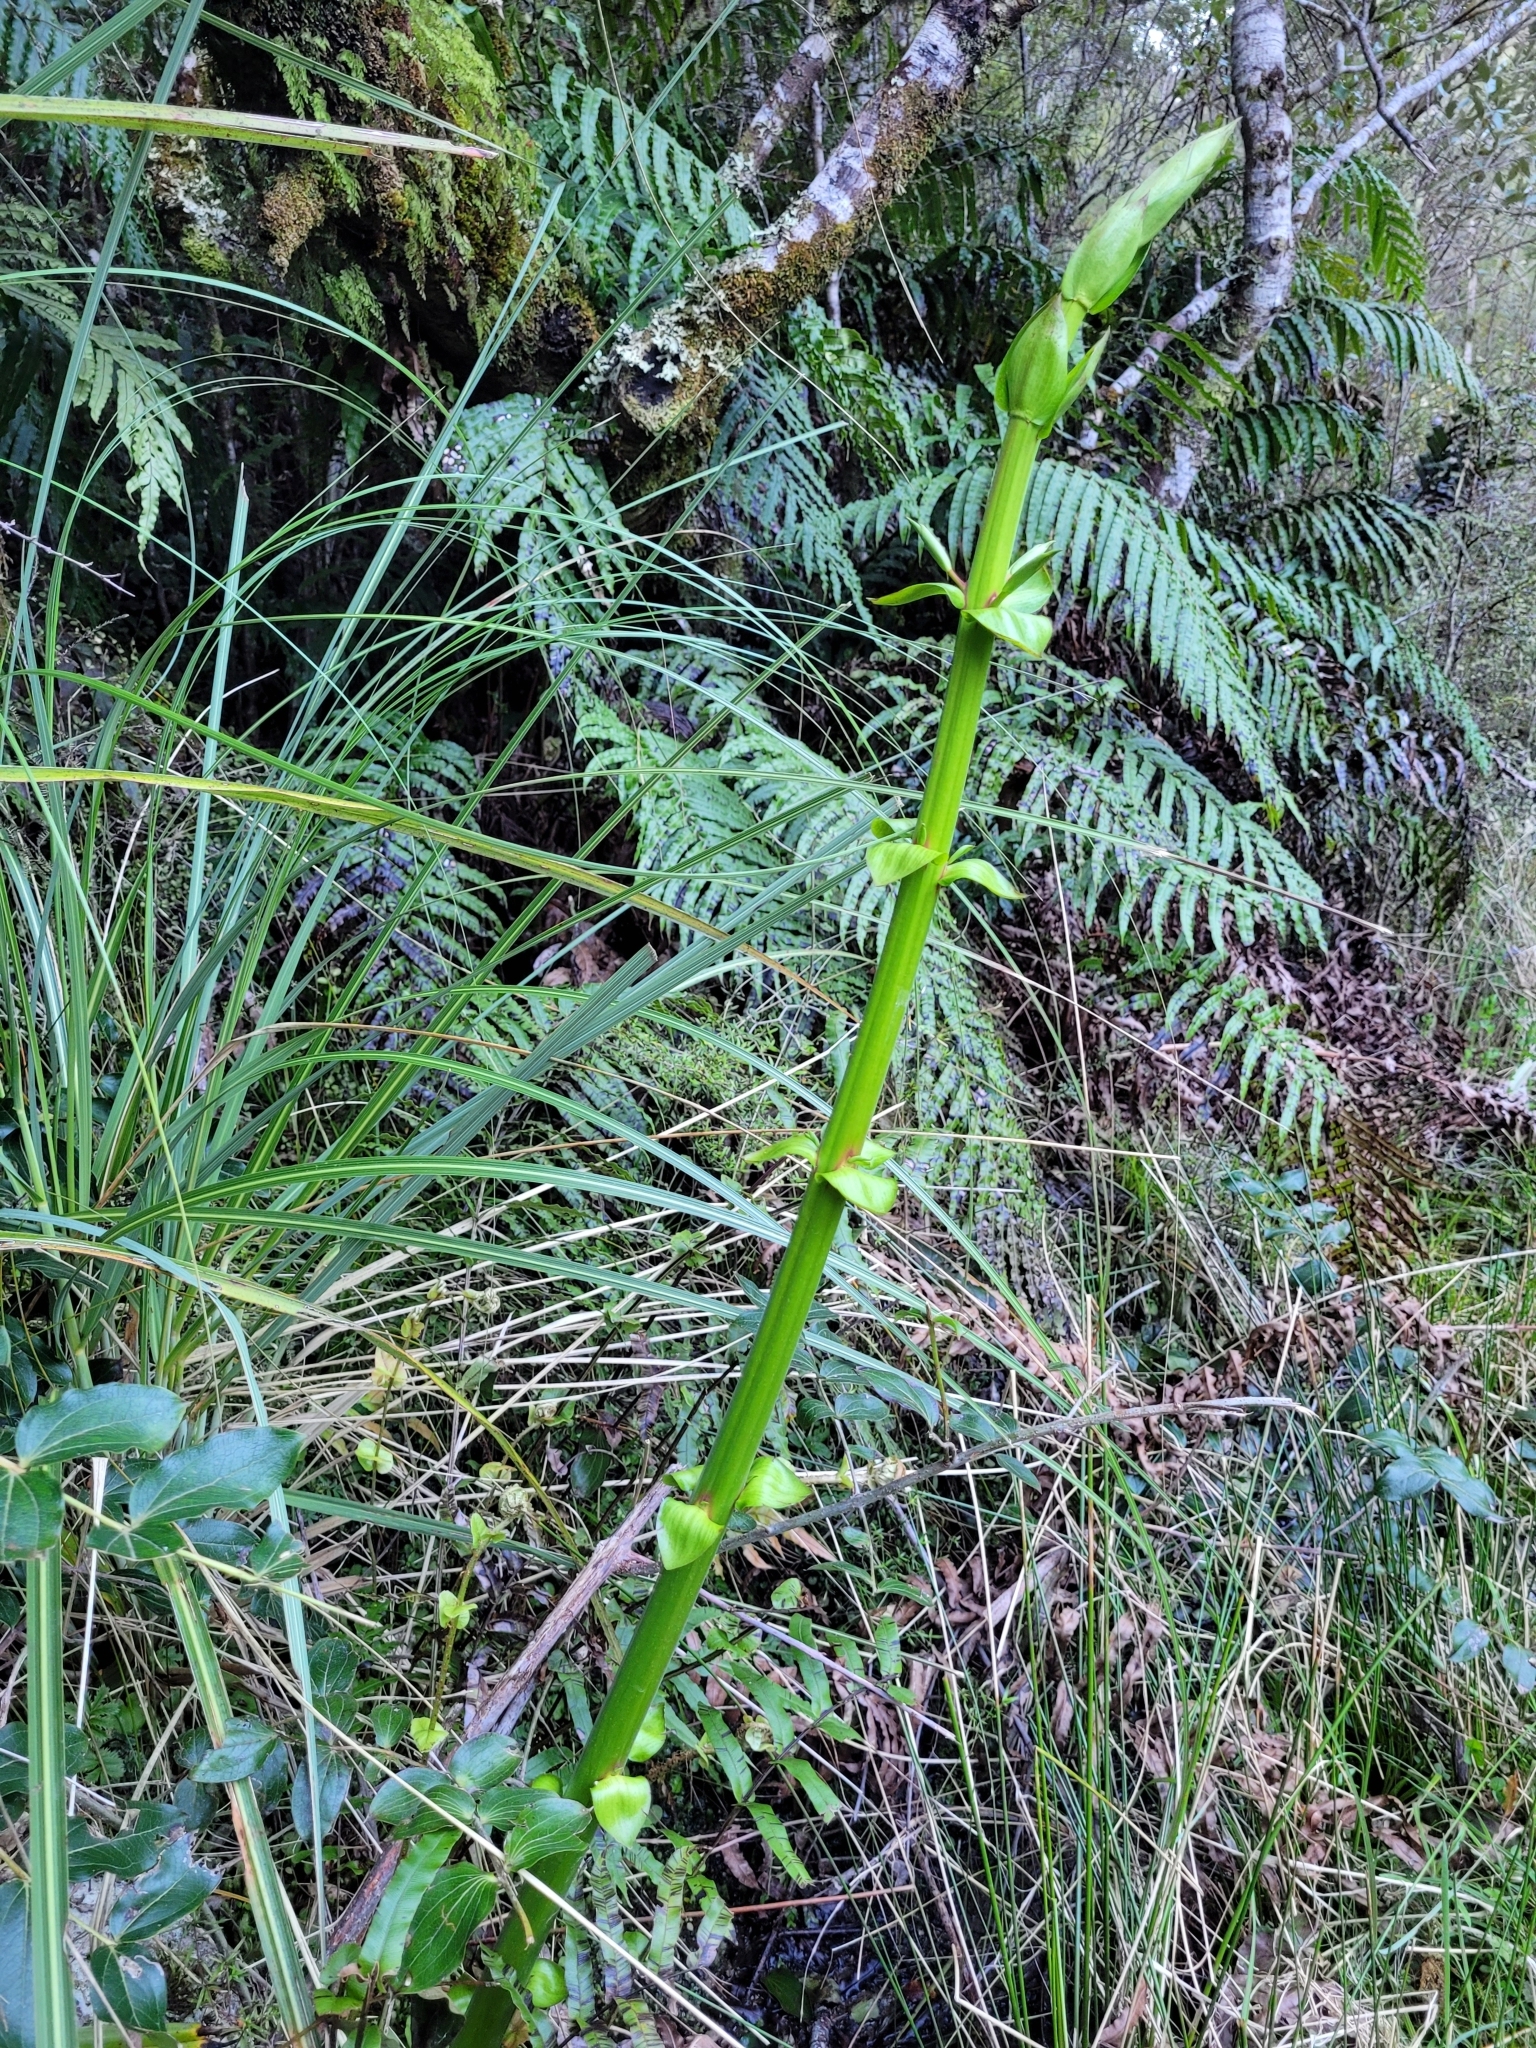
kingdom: Plantae
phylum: Tracheophyta
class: Magnoliopsida
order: Cucurbitales
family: Coriariaceae
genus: Coriaria
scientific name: Coriaria arborea
